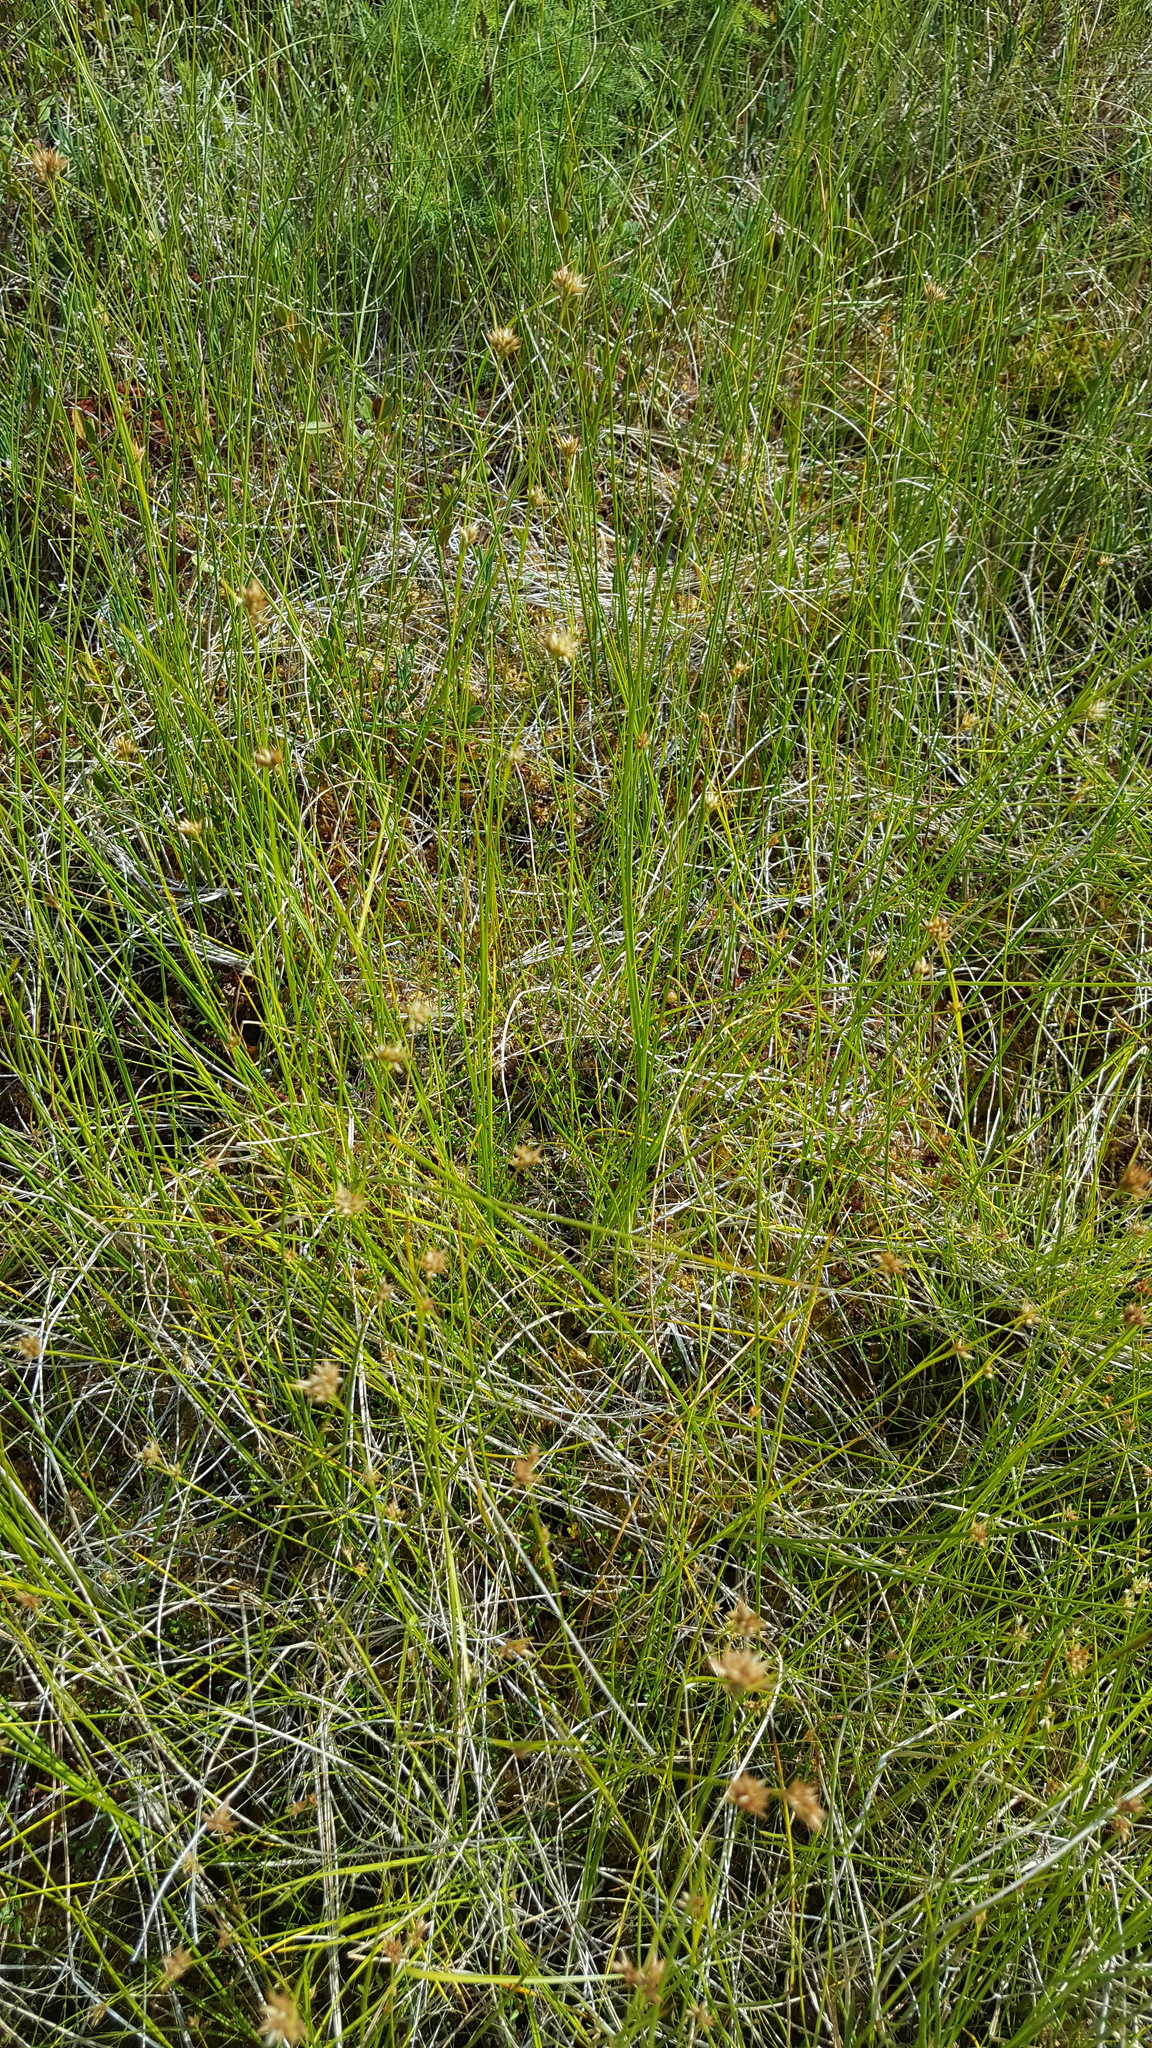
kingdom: Plantae
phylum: Tracheophyta
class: Liliopsida
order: Poales
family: Cyperaceae
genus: Rhynchospora
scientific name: Rhynchospora alba
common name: White beak-sedge
